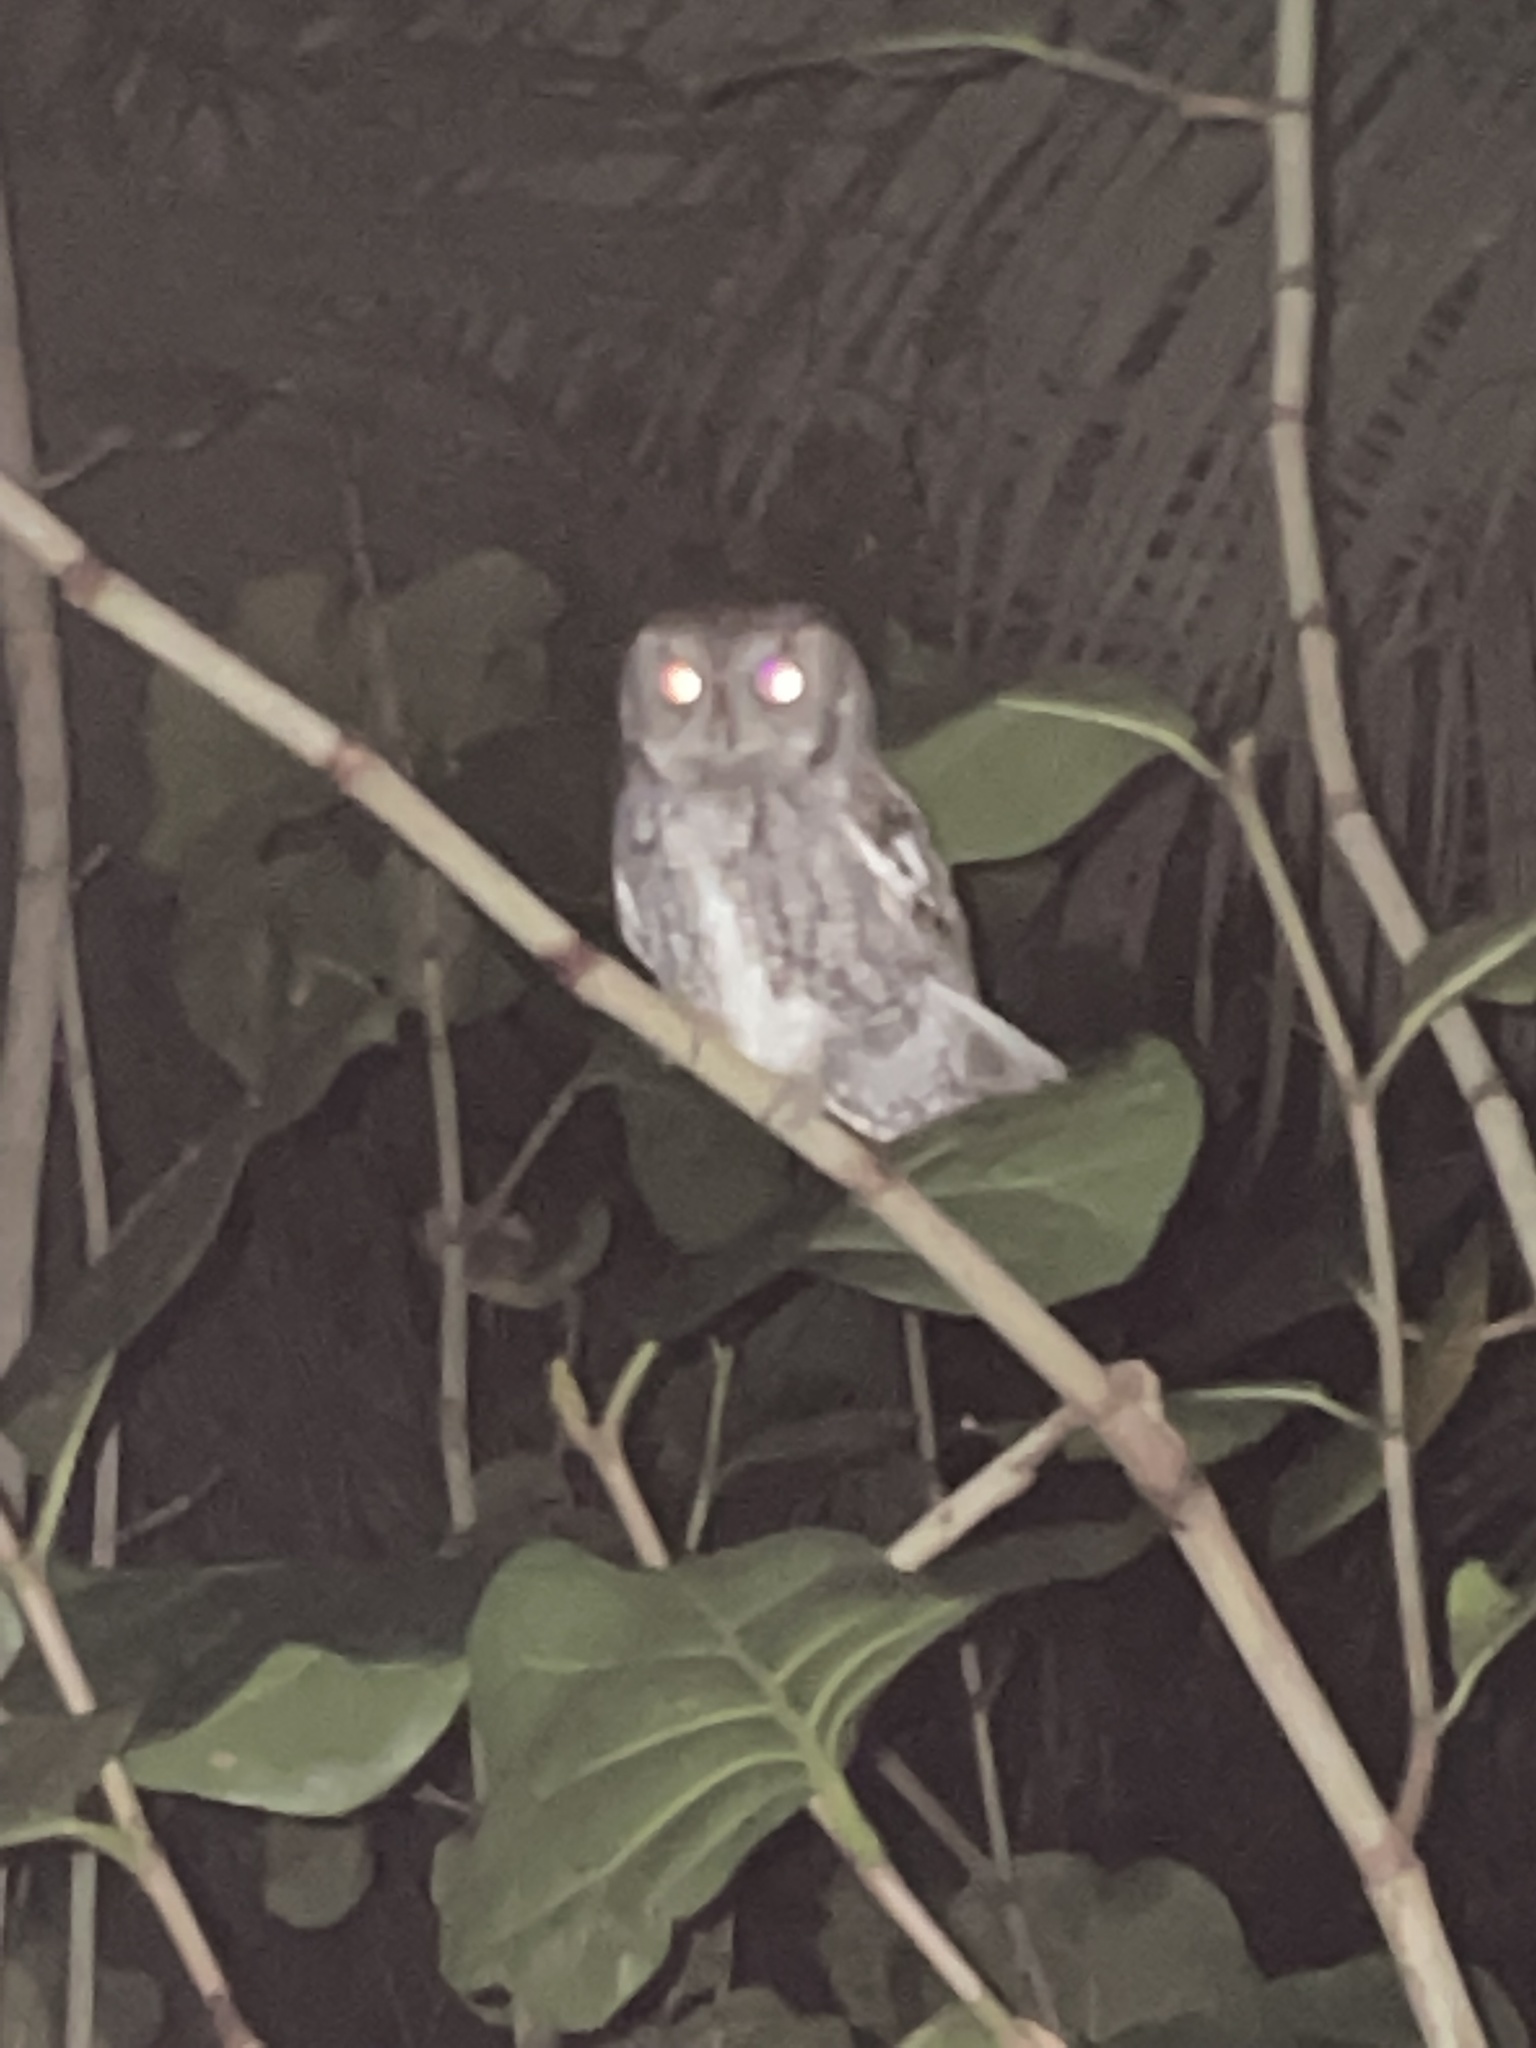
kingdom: Animalia
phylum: Chordata
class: Aves
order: Strigiformes
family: Strigidae
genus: Megascops
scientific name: Megascops asio
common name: Eastern screech-owl
